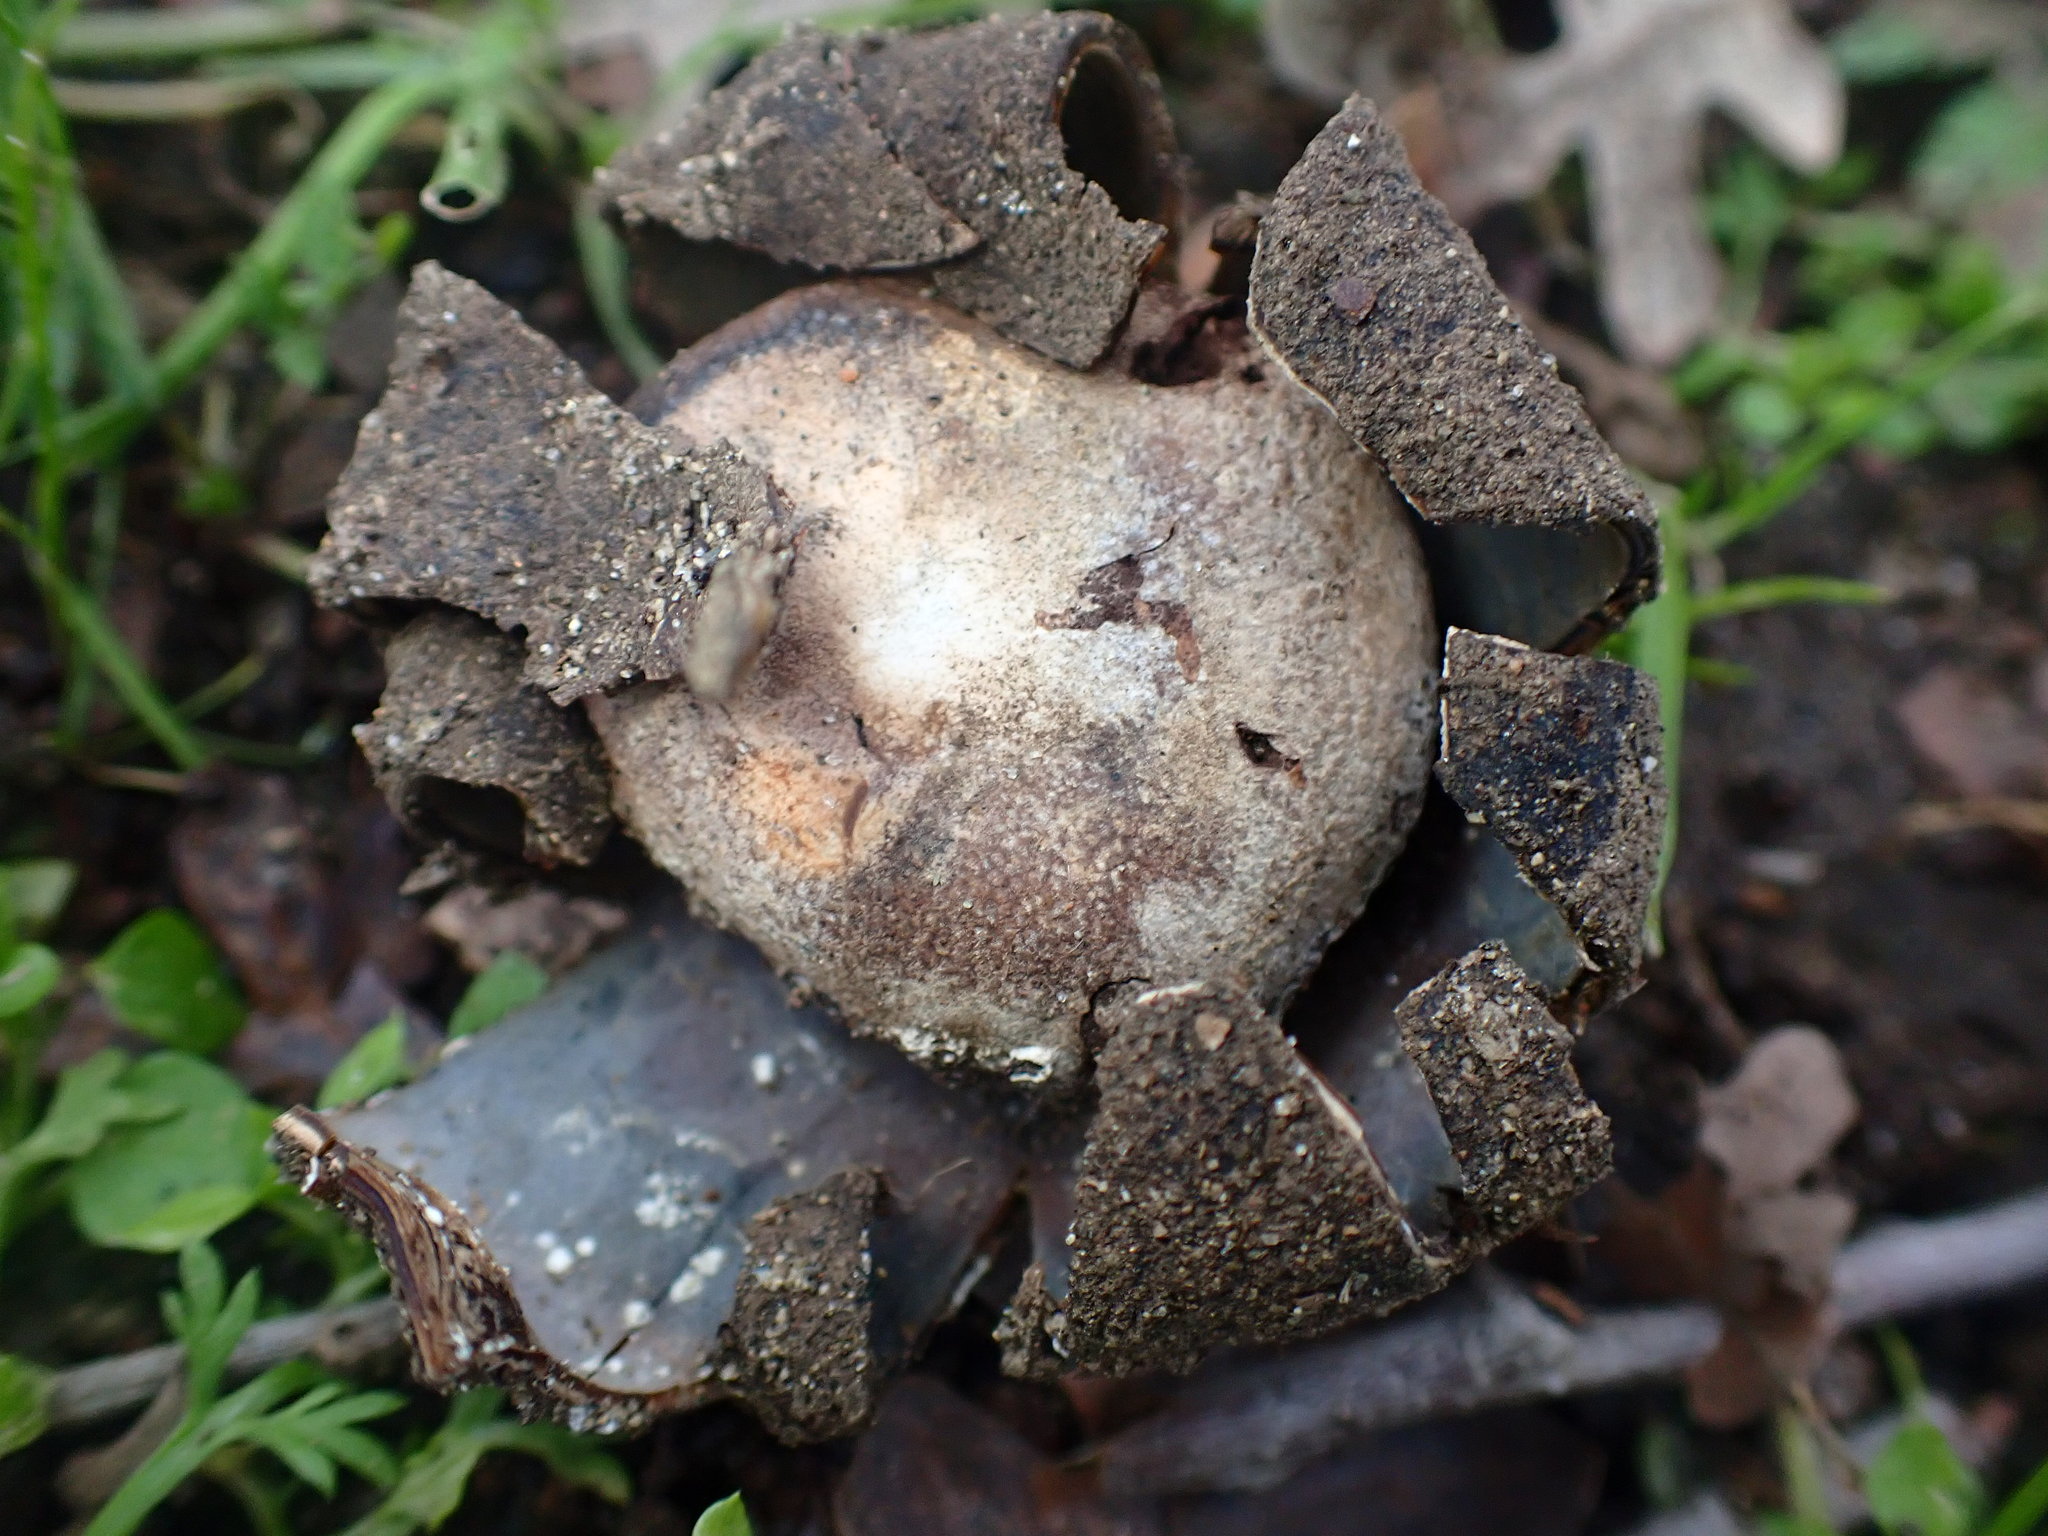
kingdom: Fungi
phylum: Basidiomycota
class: Agaricomycetes
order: Boletales
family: Diplocystidiaceae
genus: Astraeus
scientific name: Astraeus pteridis
